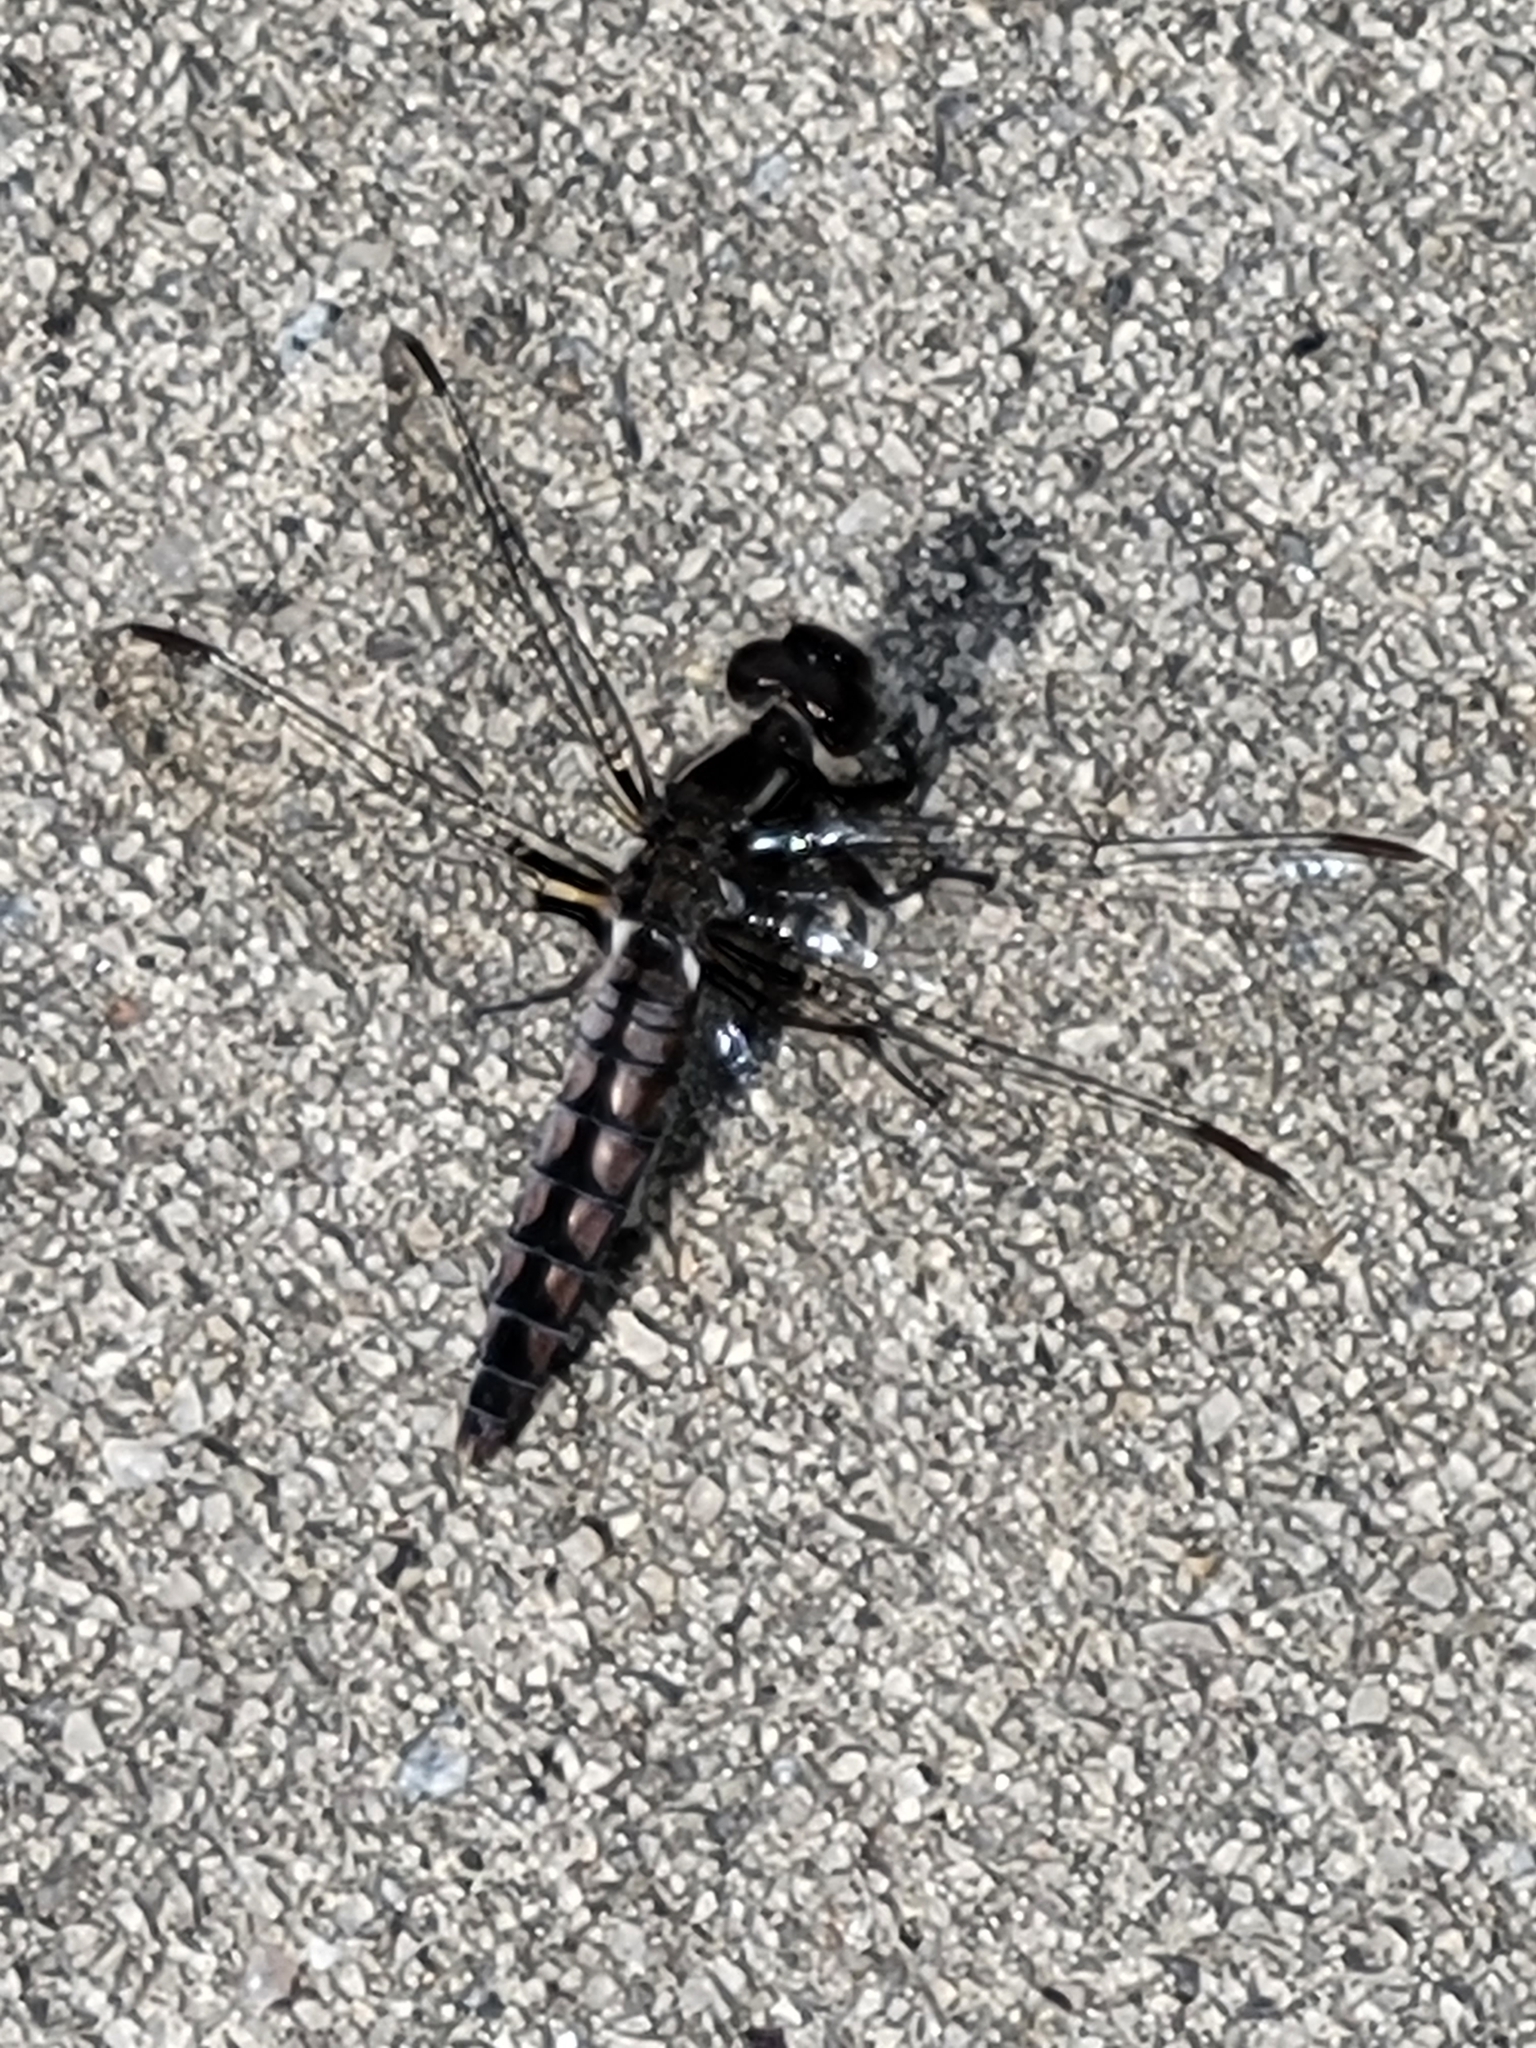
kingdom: Animalia
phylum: Arthropoda
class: Insecta
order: Odonata
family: Libellulidae
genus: Ladona
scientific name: Ladona deplanata
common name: Blue corporal
